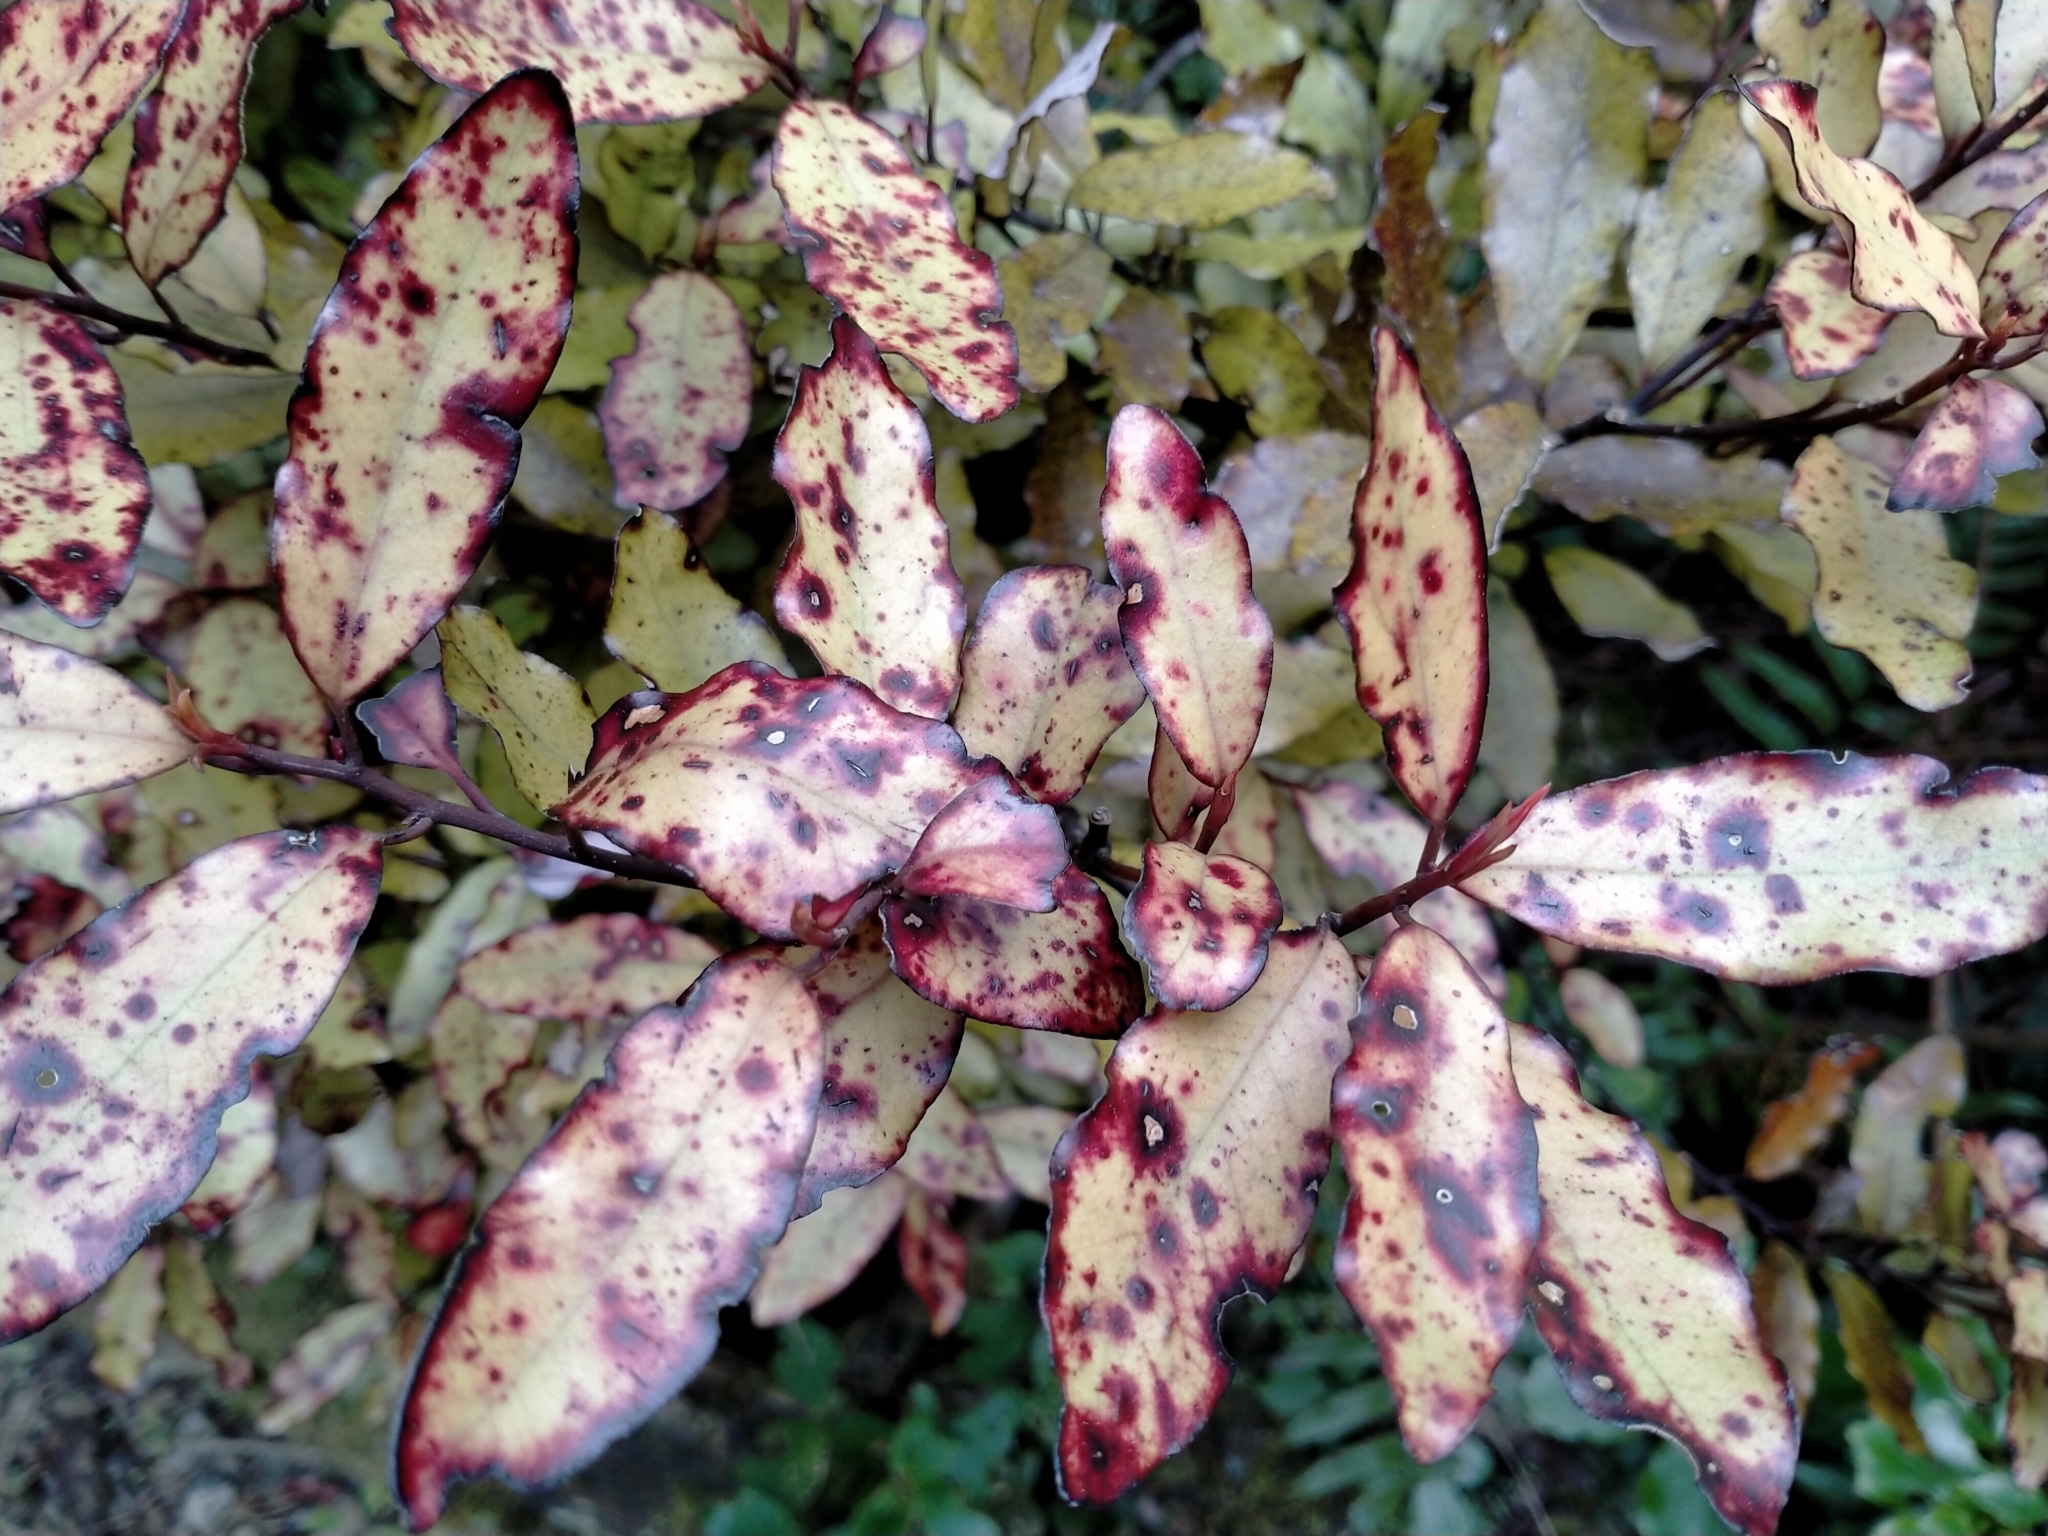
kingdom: Plantae
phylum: Tracheophyta
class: Magnoliopsida
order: Canellales
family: Winteraceae
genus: Pseudowintera
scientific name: Pseudowintera colorata
